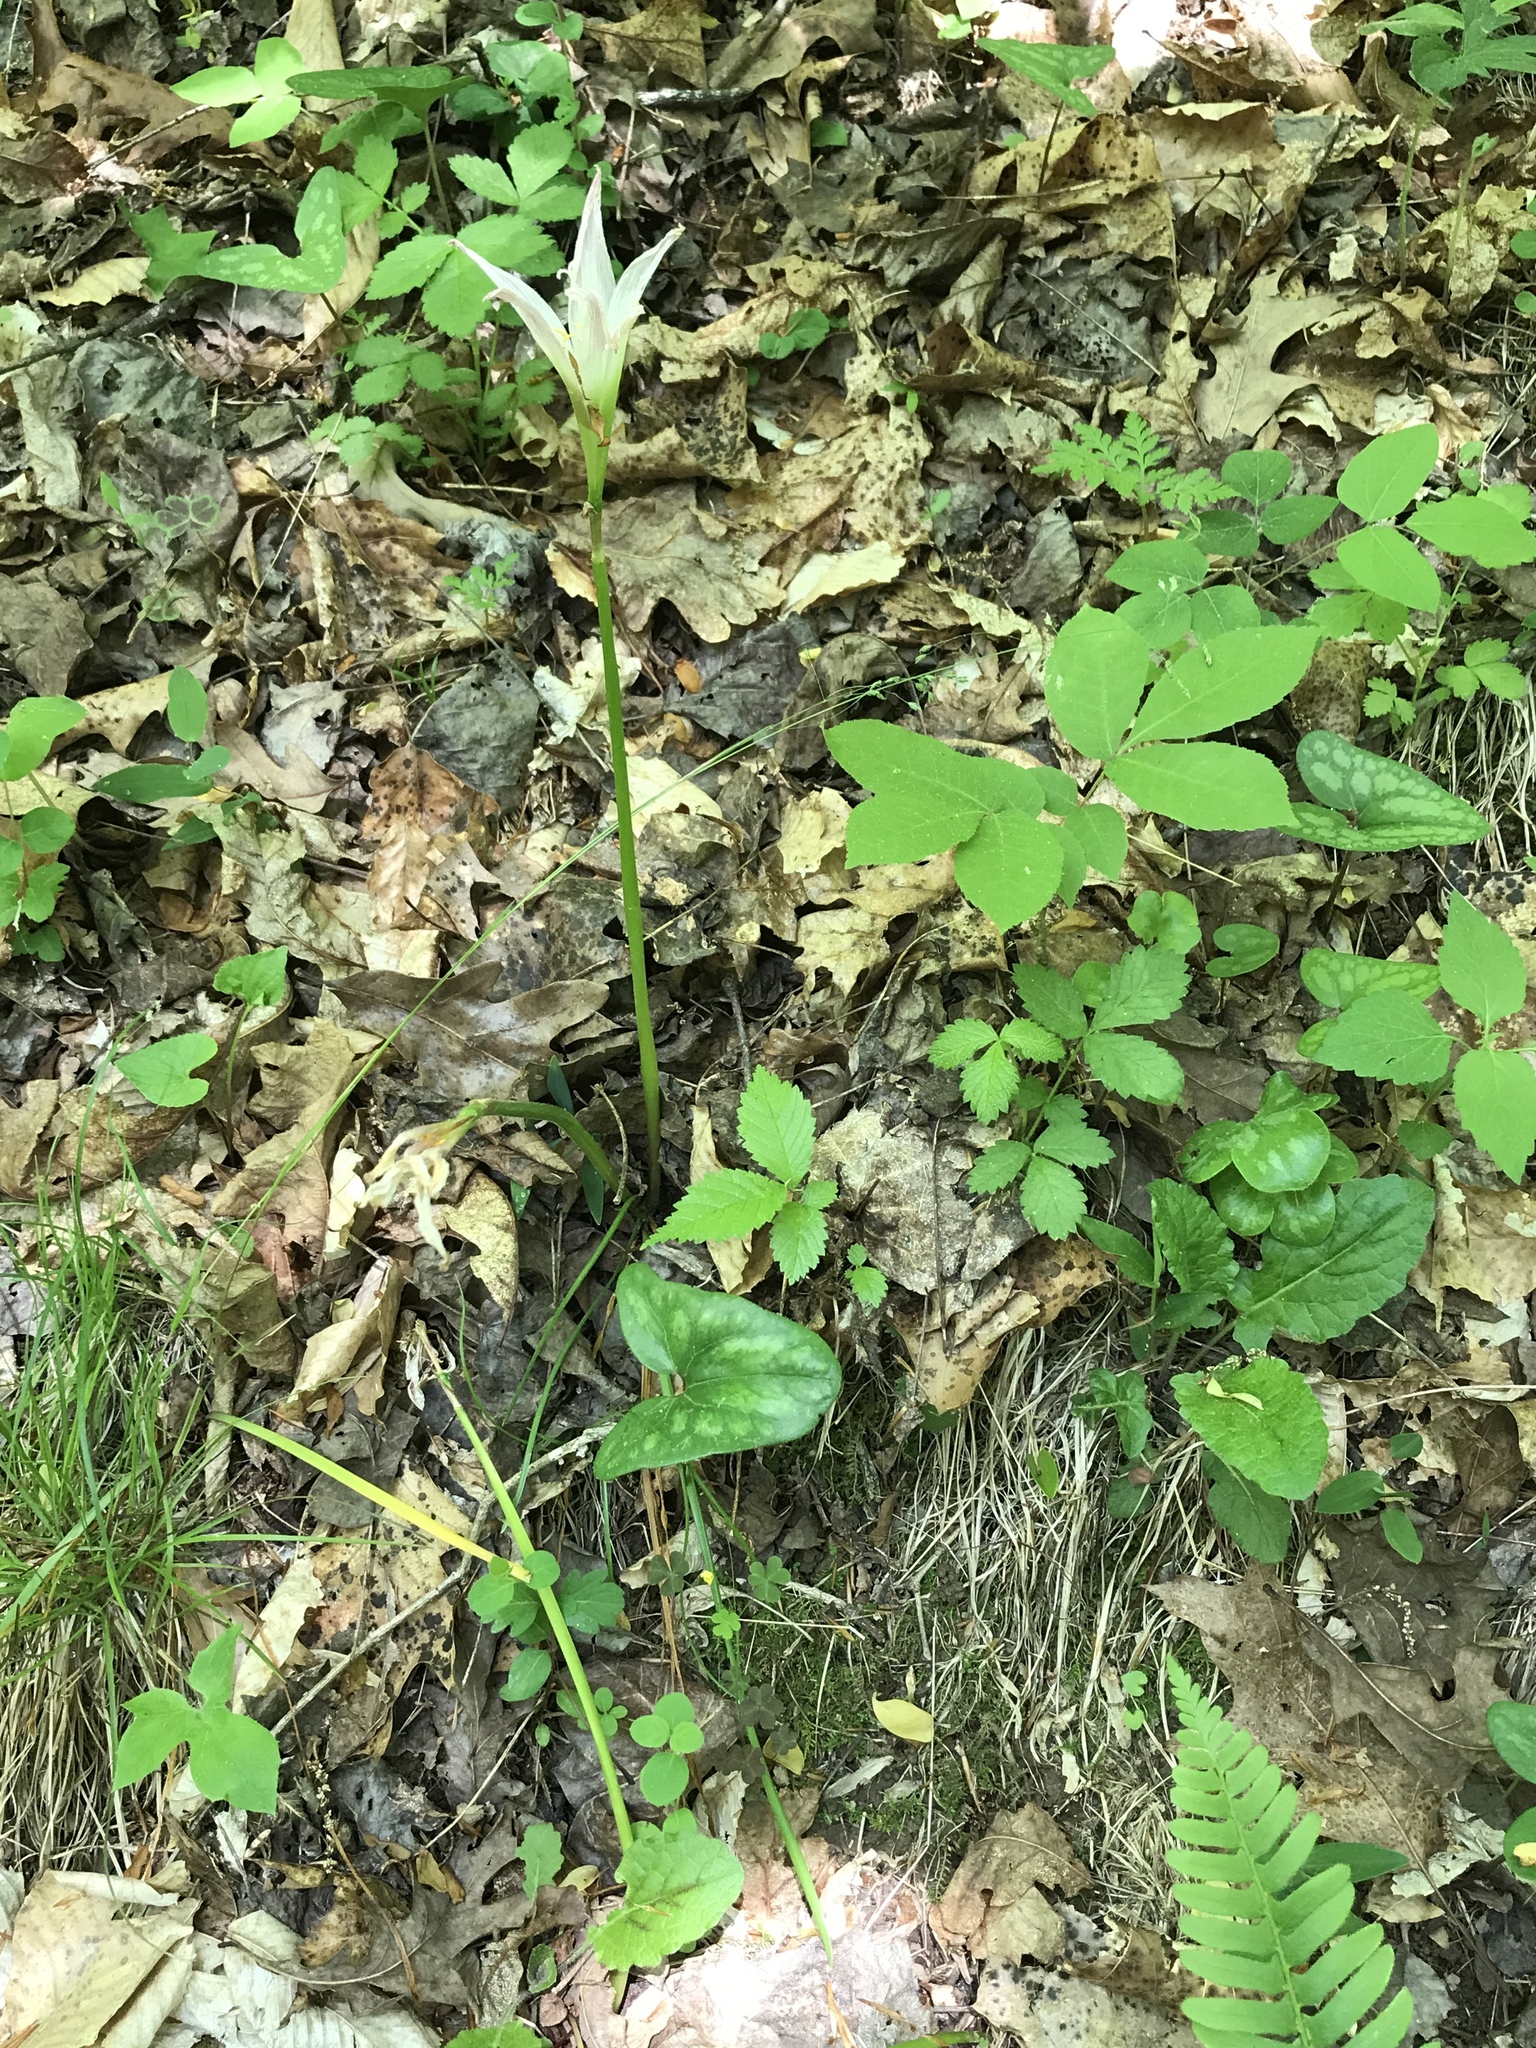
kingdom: Plantae
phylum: Tracheophyta
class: Liliopsida
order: Asparagales
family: Amaryllidaceae
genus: Zephyranthes
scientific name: Zephyranthes atamasco
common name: Atamasco lily
